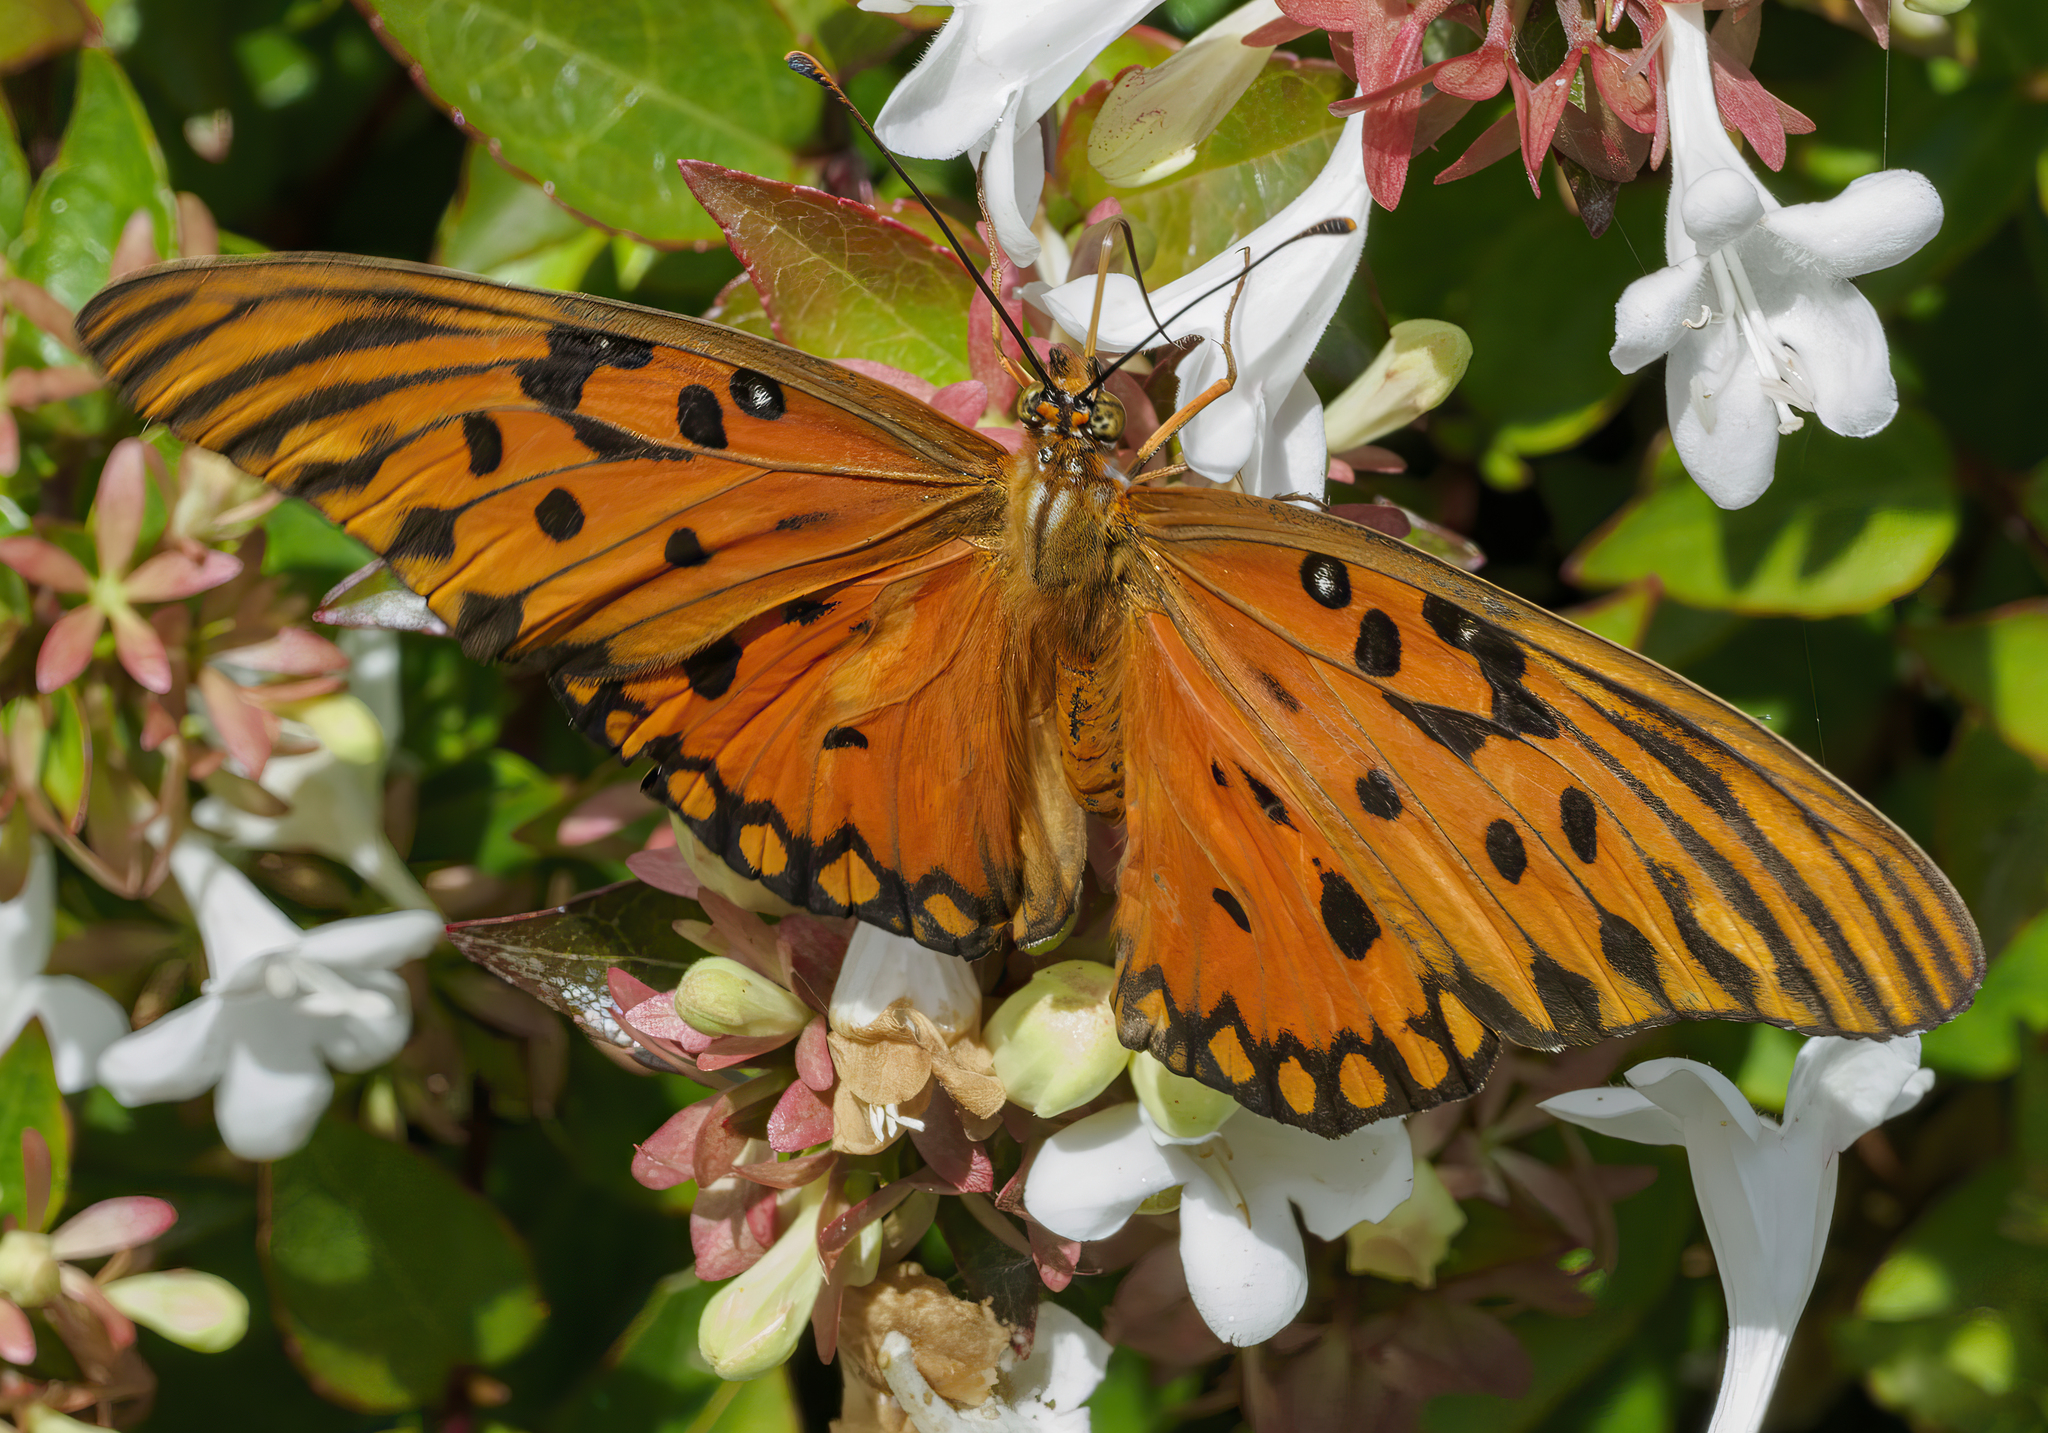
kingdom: Animalia
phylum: Arthropoda
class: Insecta
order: Lepidoptera
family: Nymphalidae
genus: Dione
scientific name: Dione vanillae
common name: Gulf fritillary
